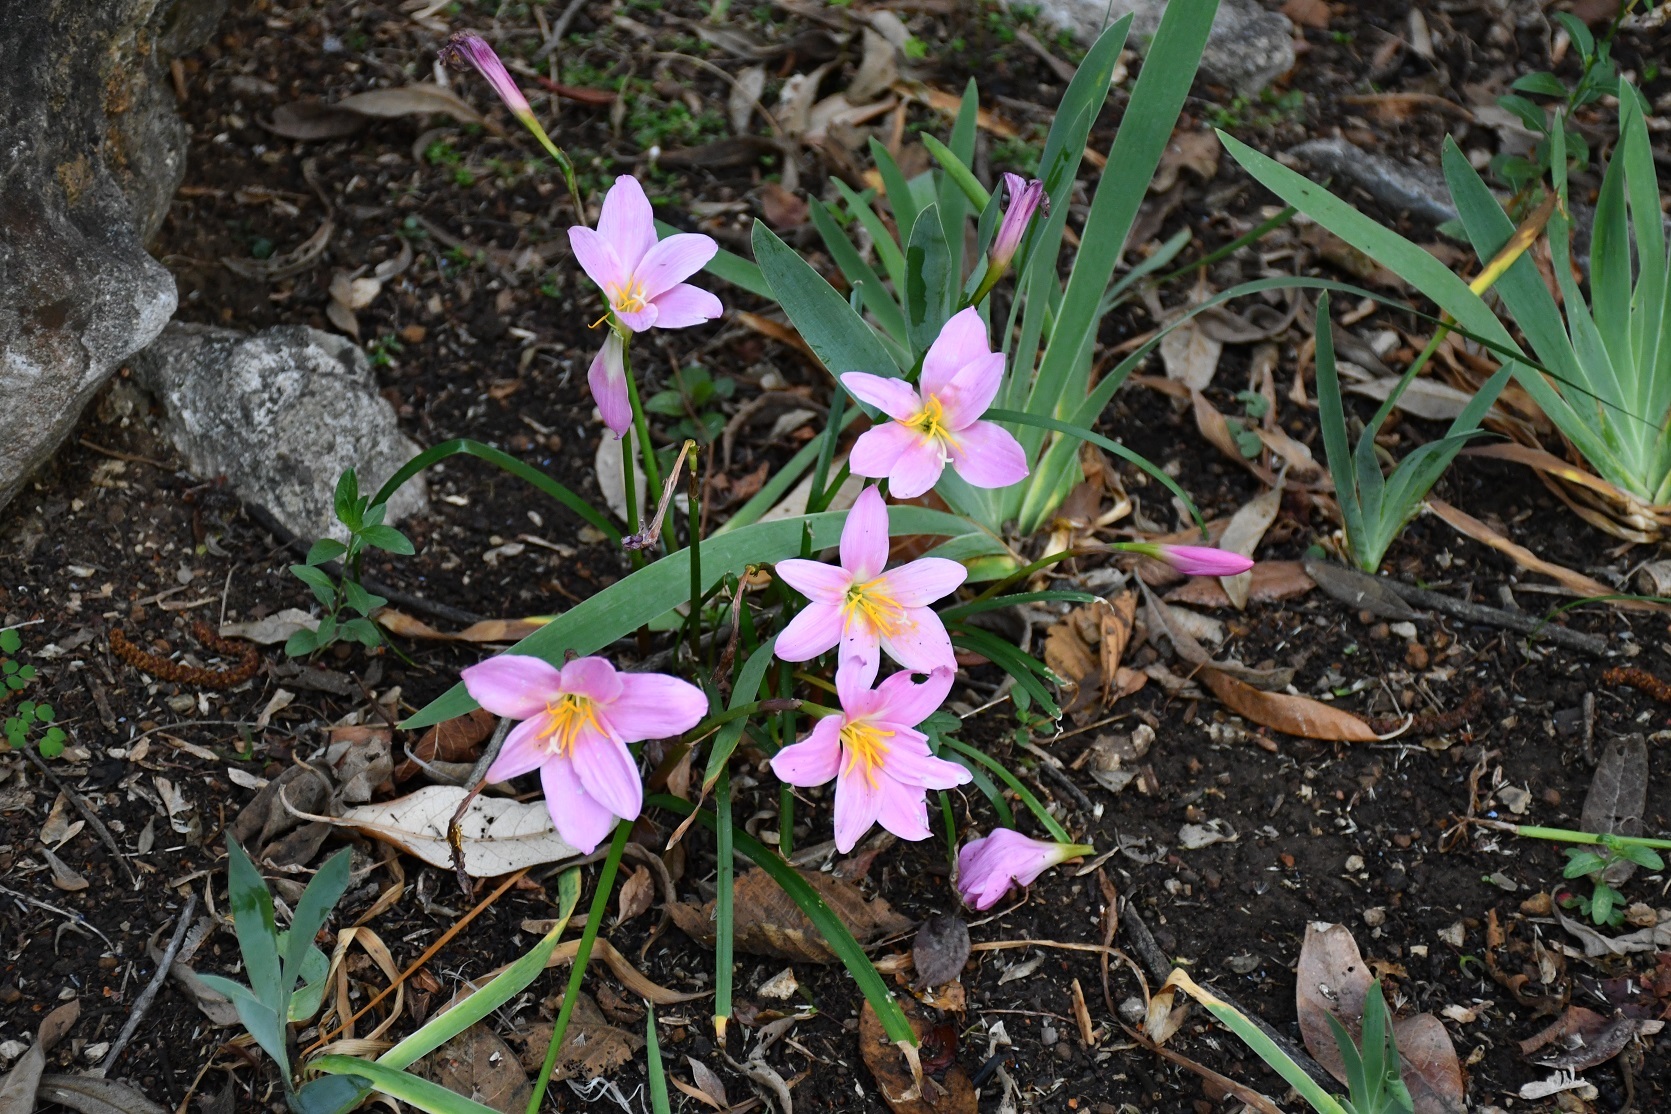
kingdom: Plantae
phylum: Tracheophyta
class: Liliopsida
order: Asparagales
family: Amaryllidaceae
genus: Zephyranthes
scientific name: Zephyranthes brevipes
